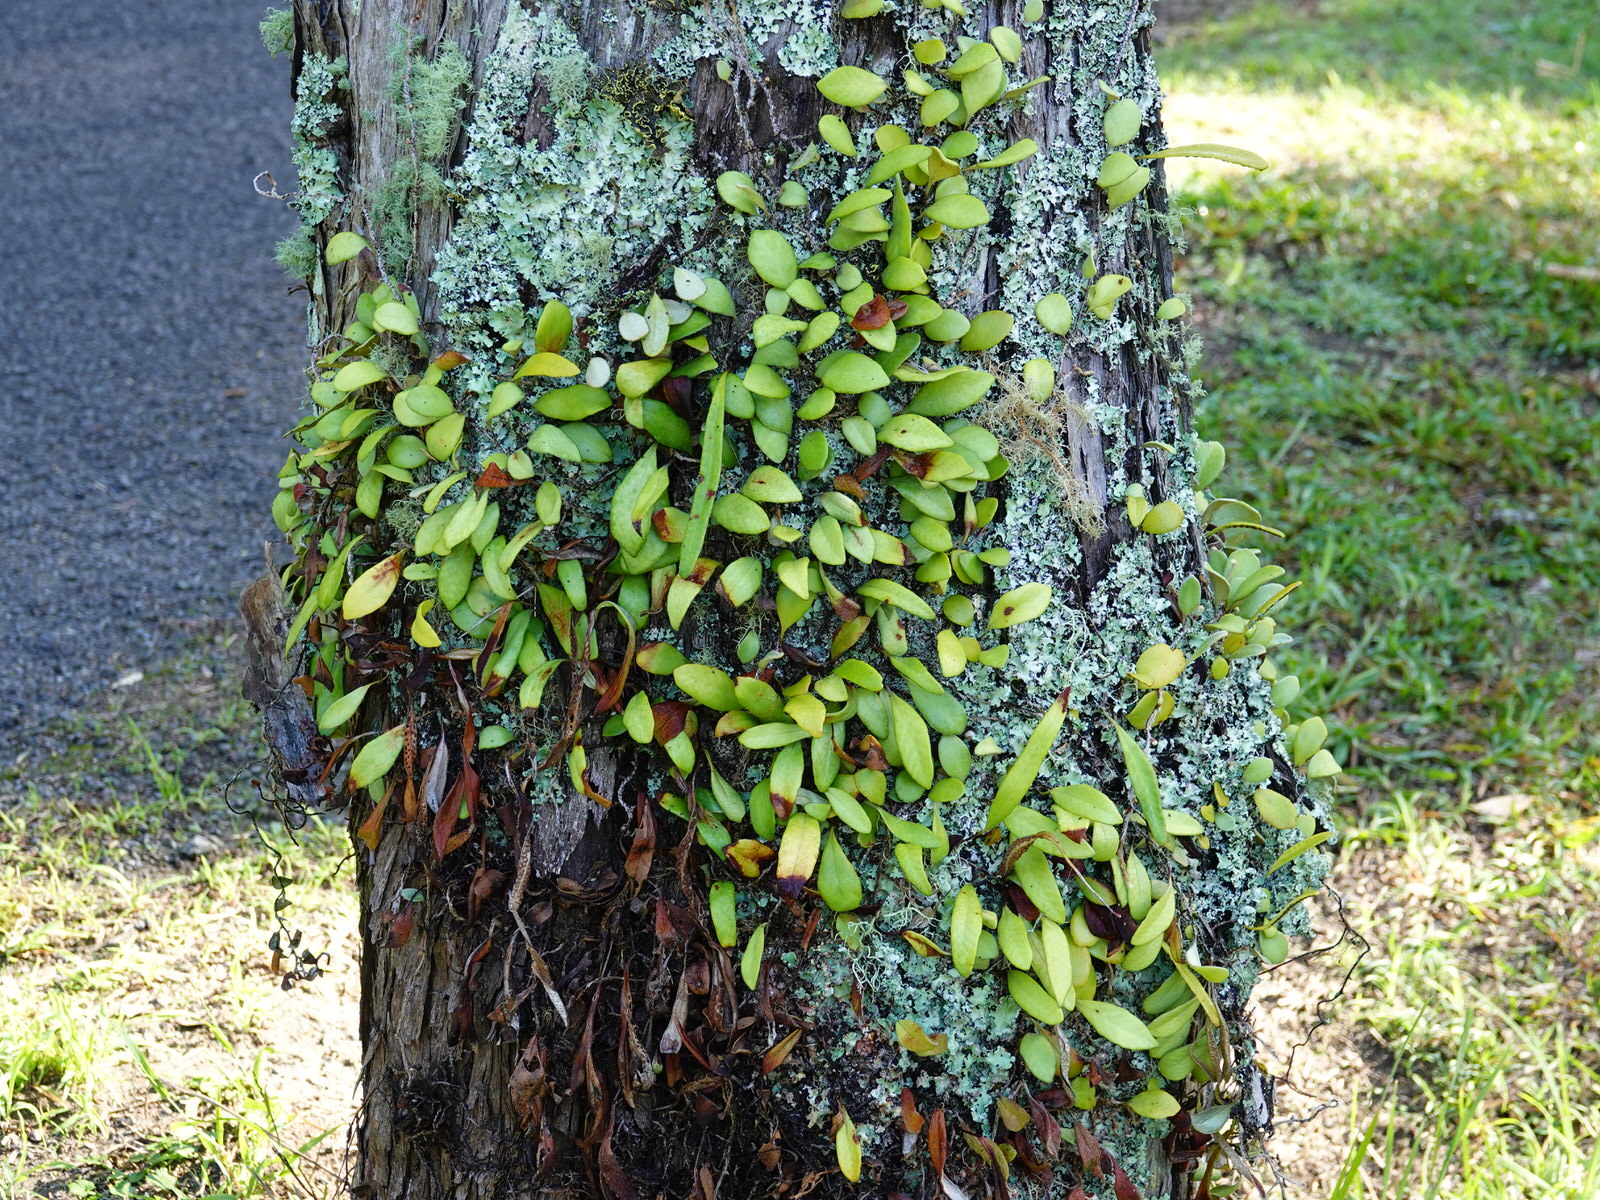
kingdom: Plantae
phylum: Tracheophyta
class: Polypodiopsida
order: Polypodiales
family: Polypodiaceae
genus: Pyrrosia
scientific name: Pyrrosia eleagnifolia
